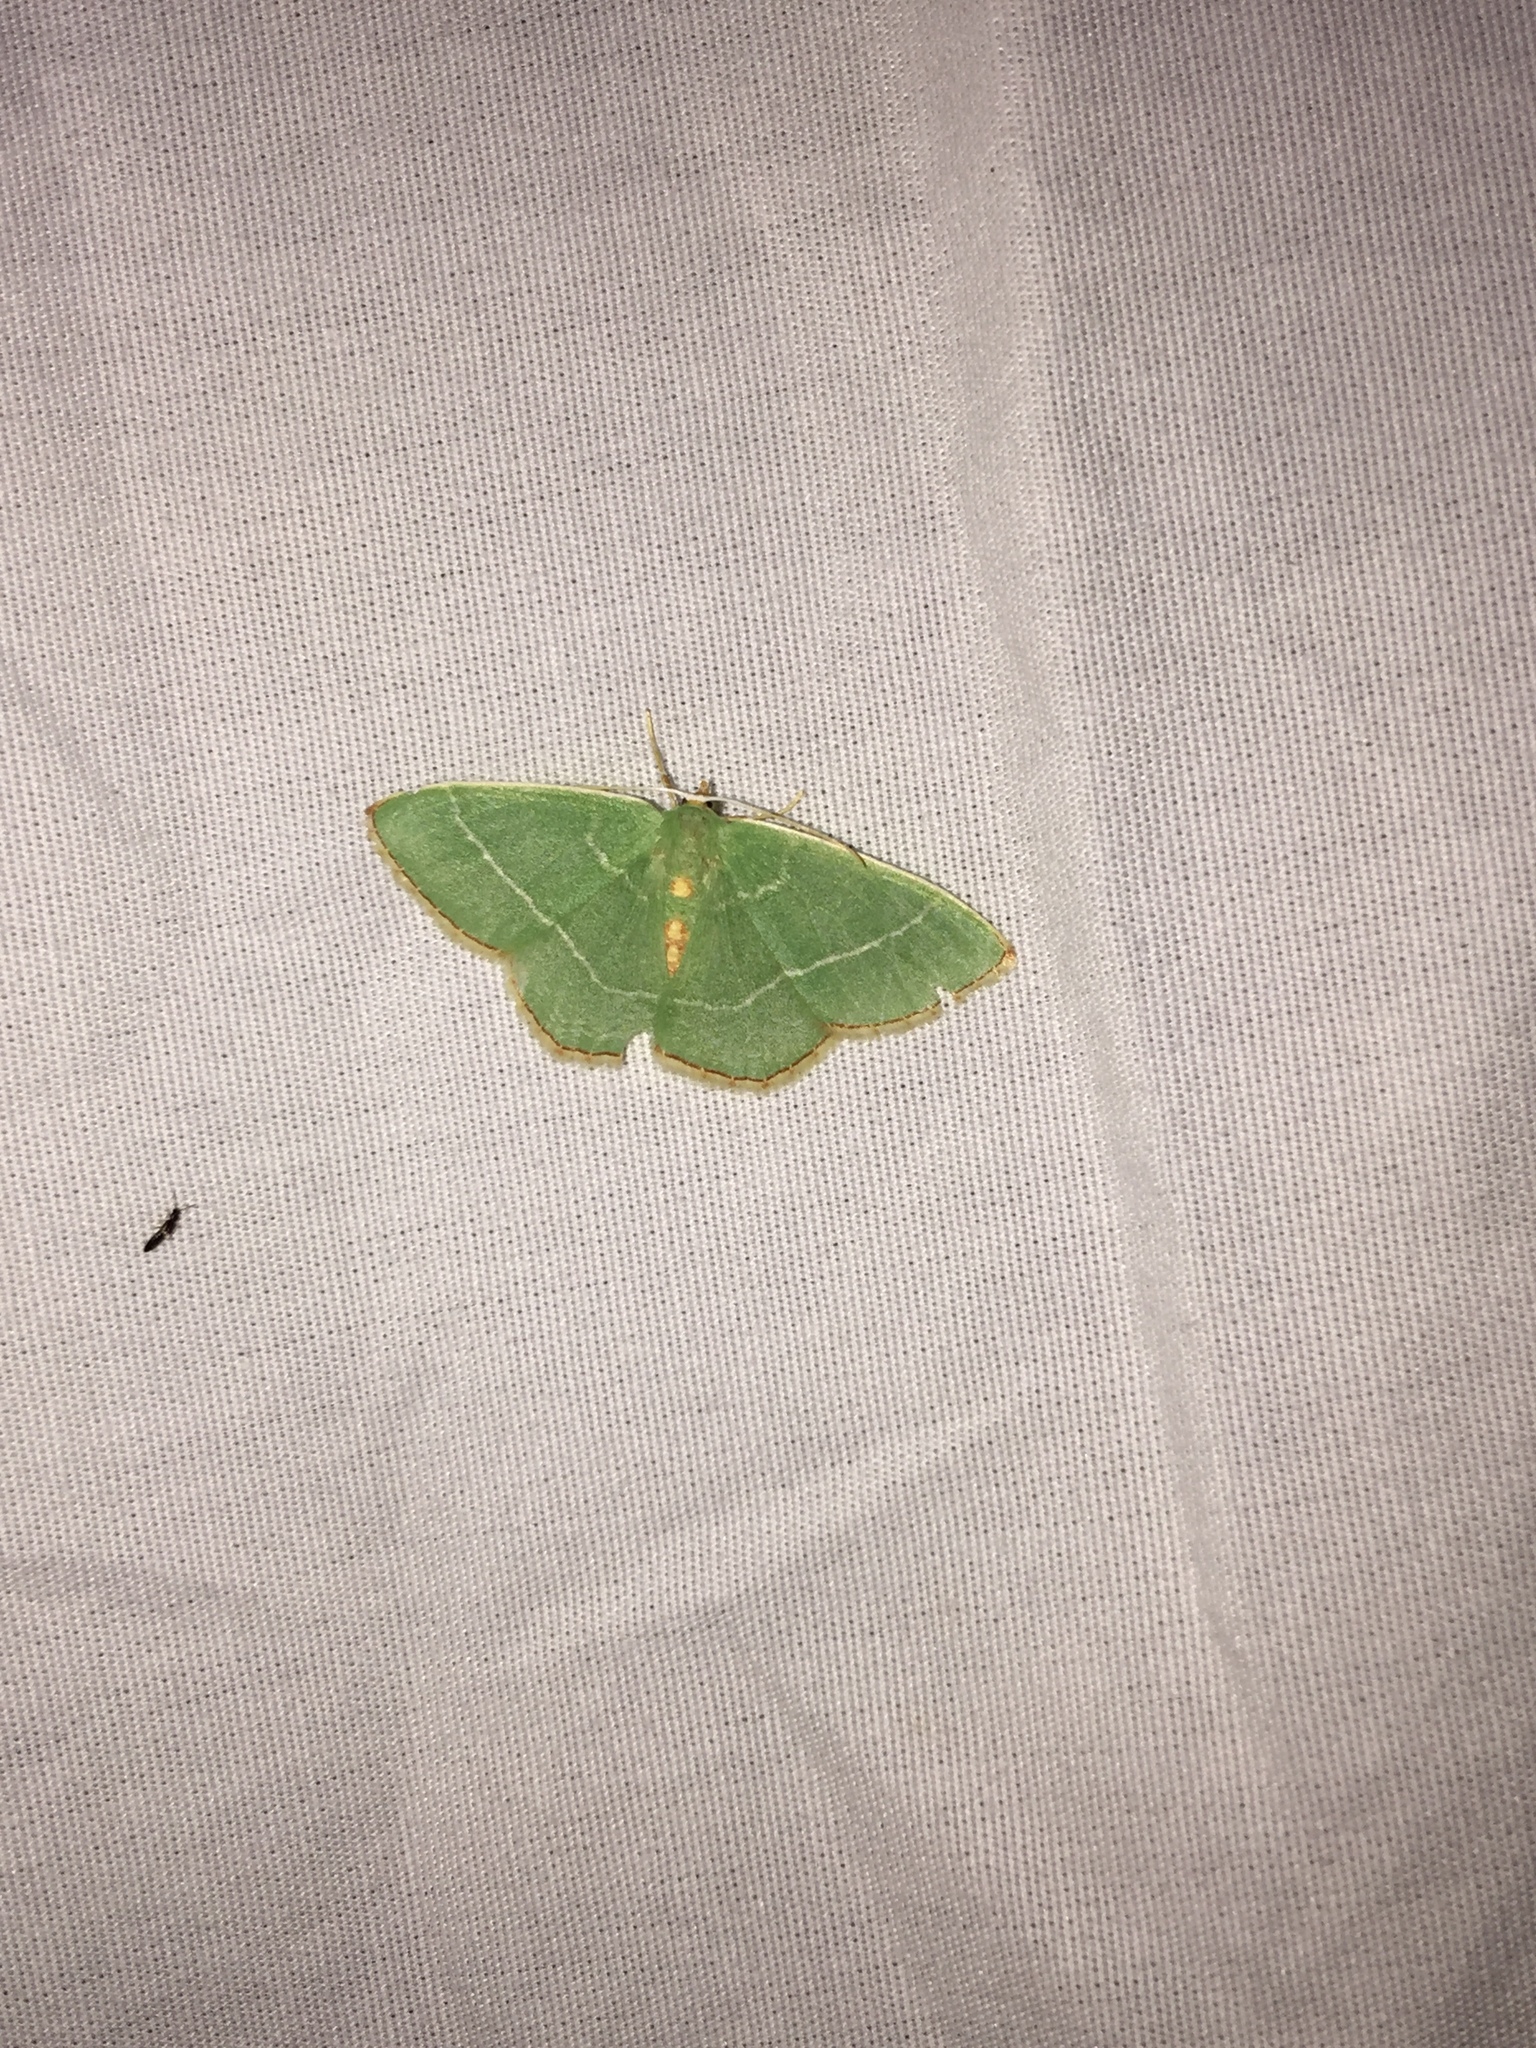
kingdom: Animalia
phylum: Arthropoda
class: Insecta
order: Lepidoptera
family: Geometridae
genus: Nemoria
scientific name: Nemoria bistriaria
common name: Red-fringed emerald
